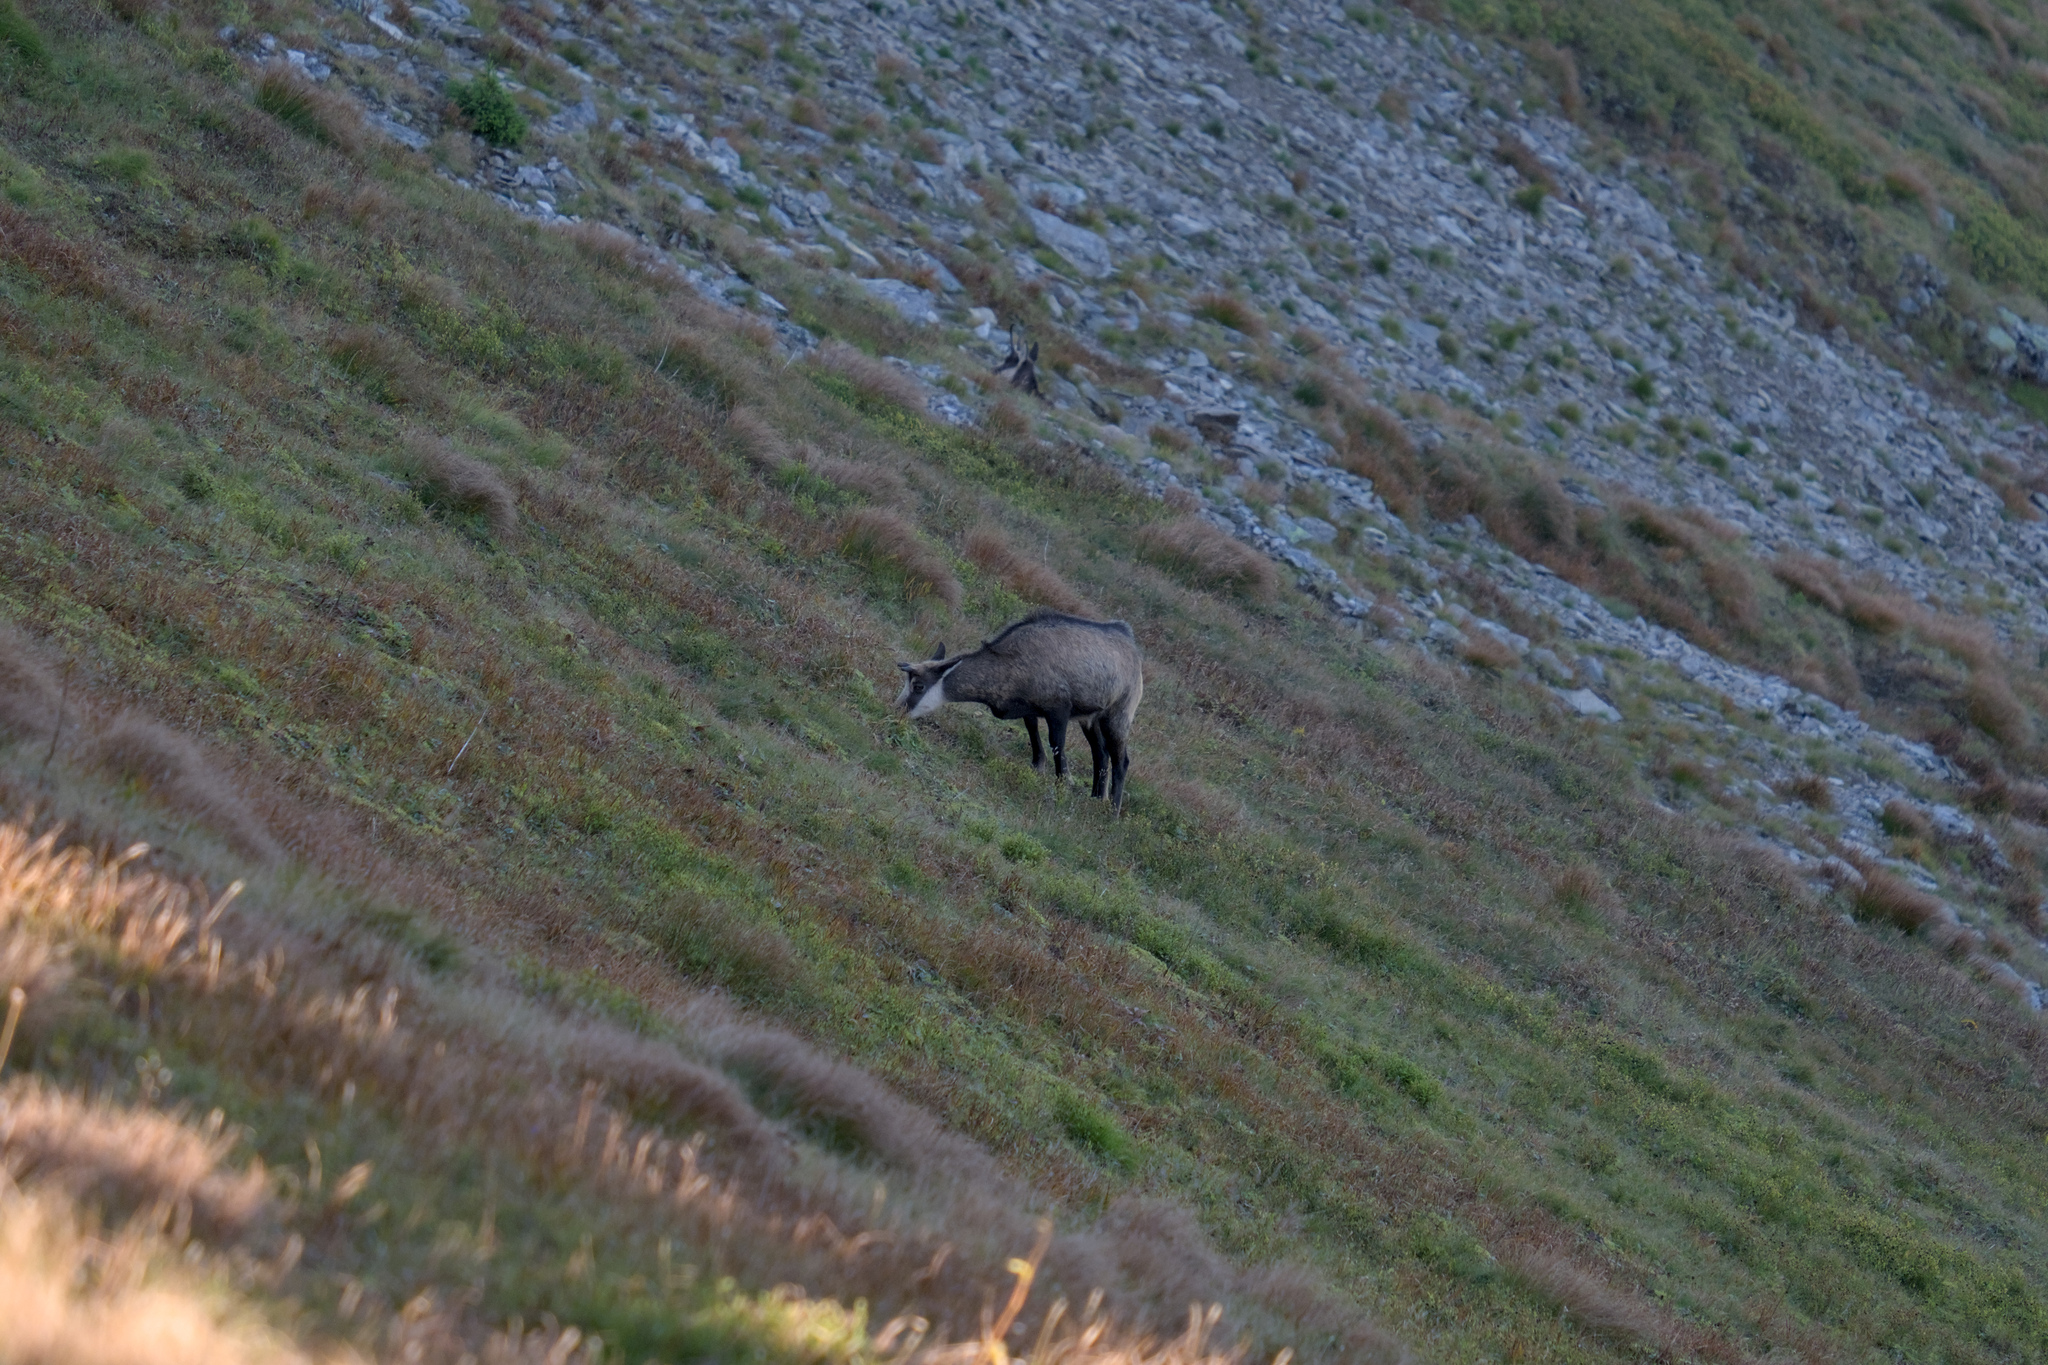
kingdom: Animalia
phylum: Chordata
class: Mammalia
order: Artiodactyla
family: Bovidae
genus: Rupicapra
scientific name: Rupicapra rupicapra
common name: Chamois
